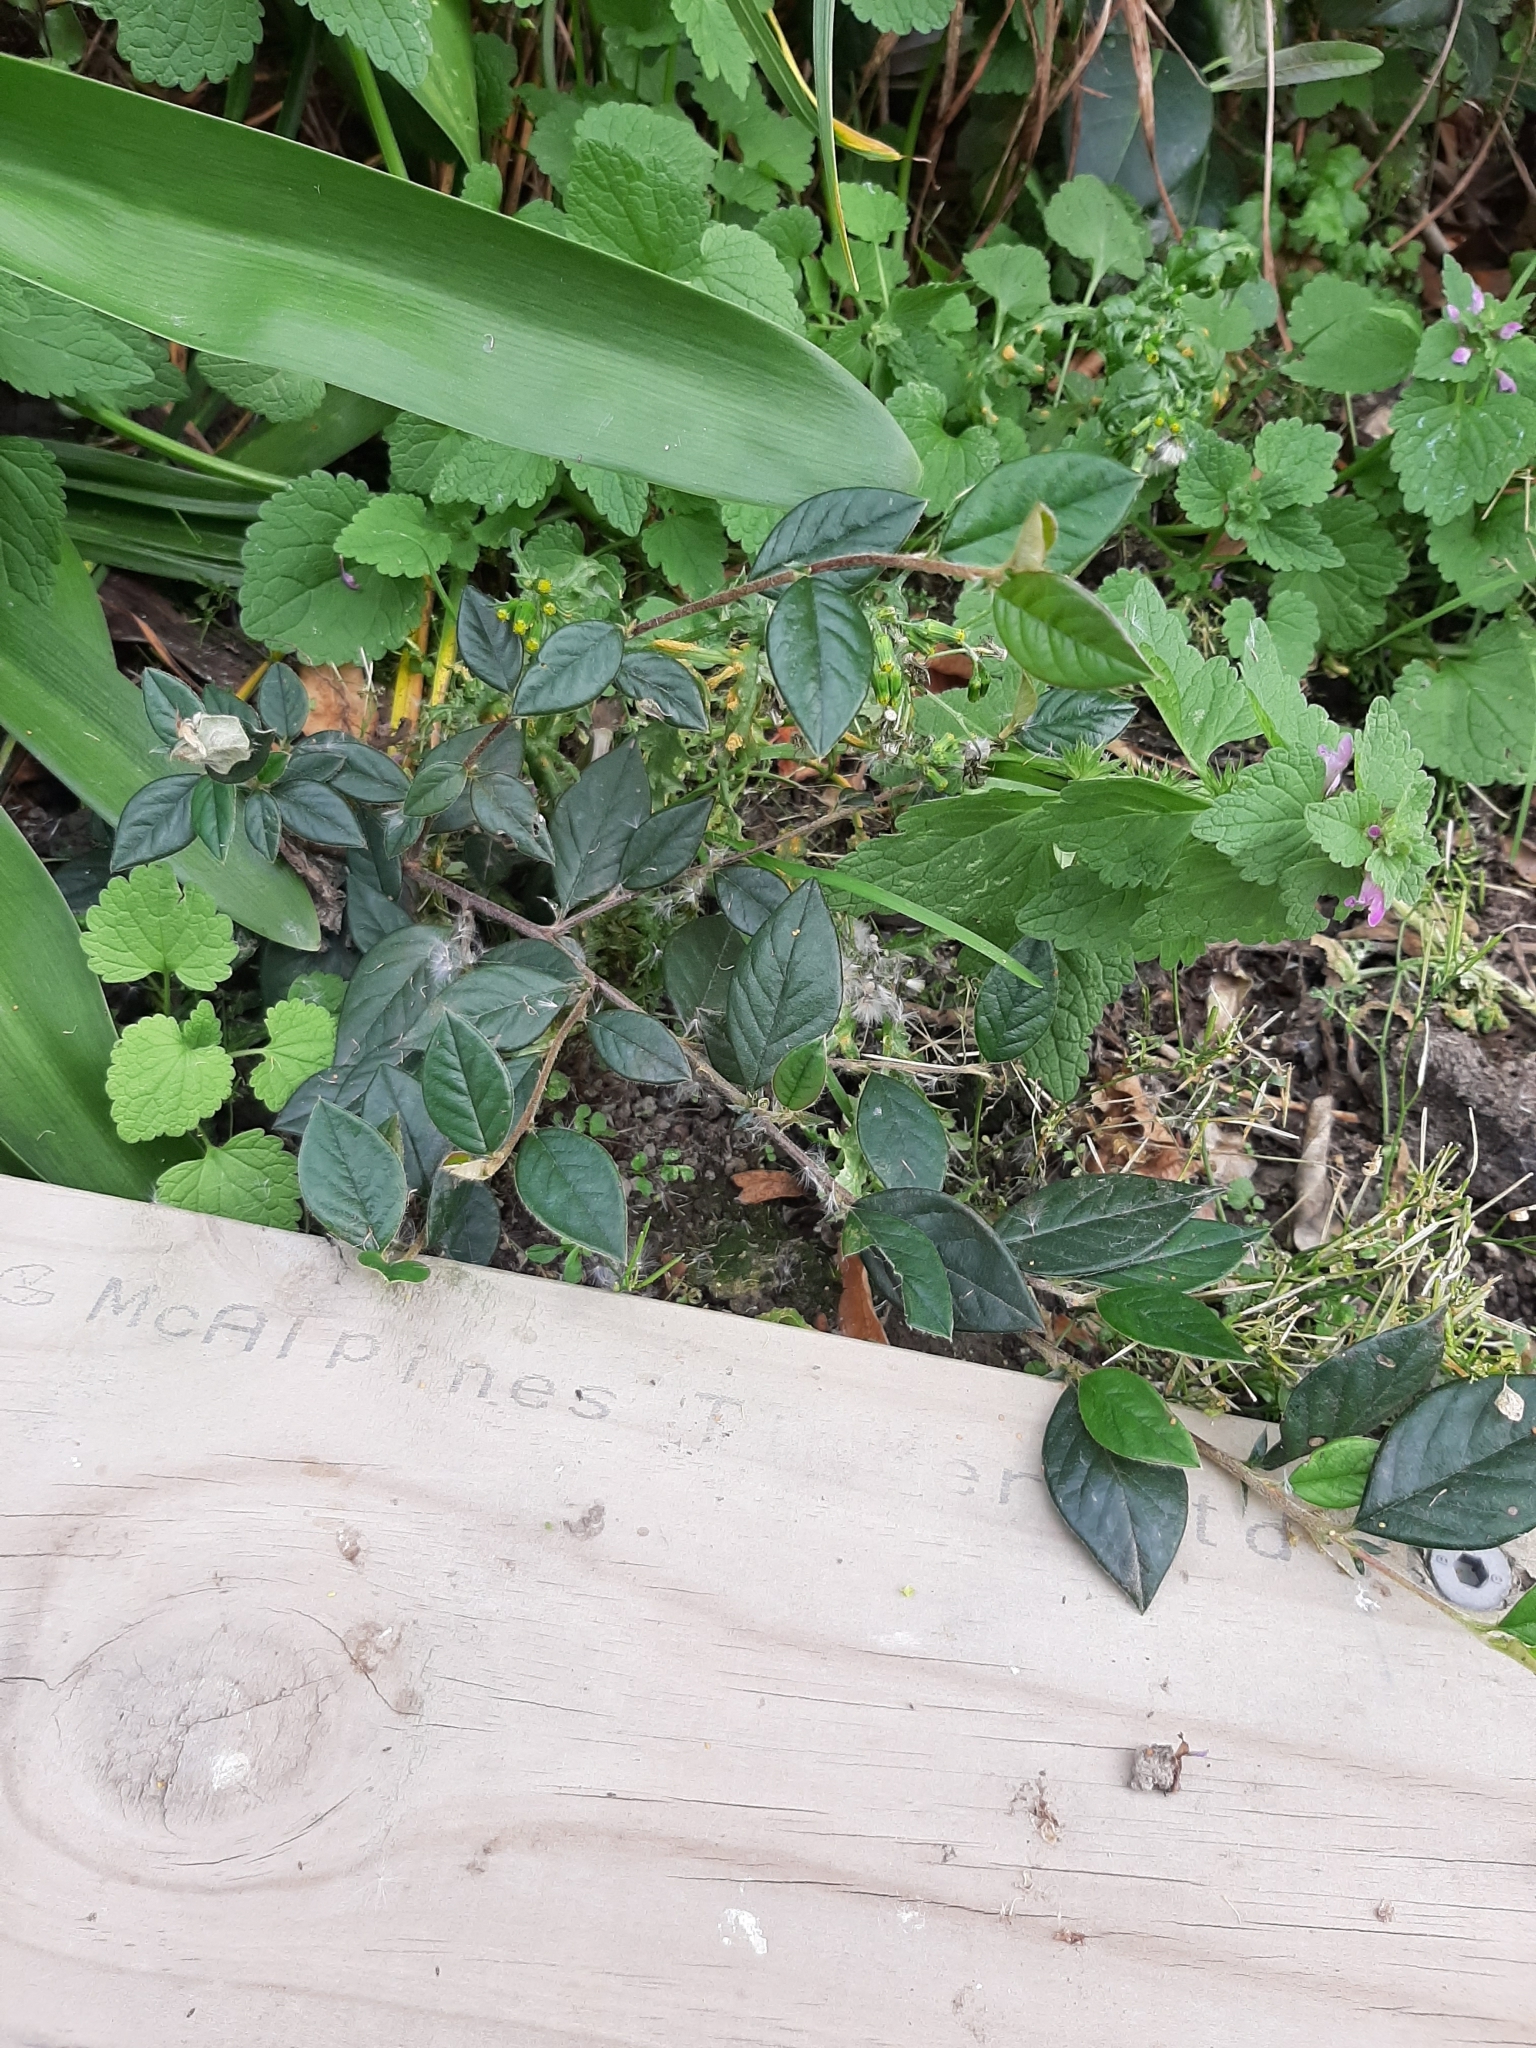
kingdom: Plantae
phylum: Tracheophyta
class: Magnoliopsida
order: Rosales
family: Rosaceae
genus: Cotoneaster
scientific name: Cotoneaster simonsii
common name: Himalayan cotoneaster
